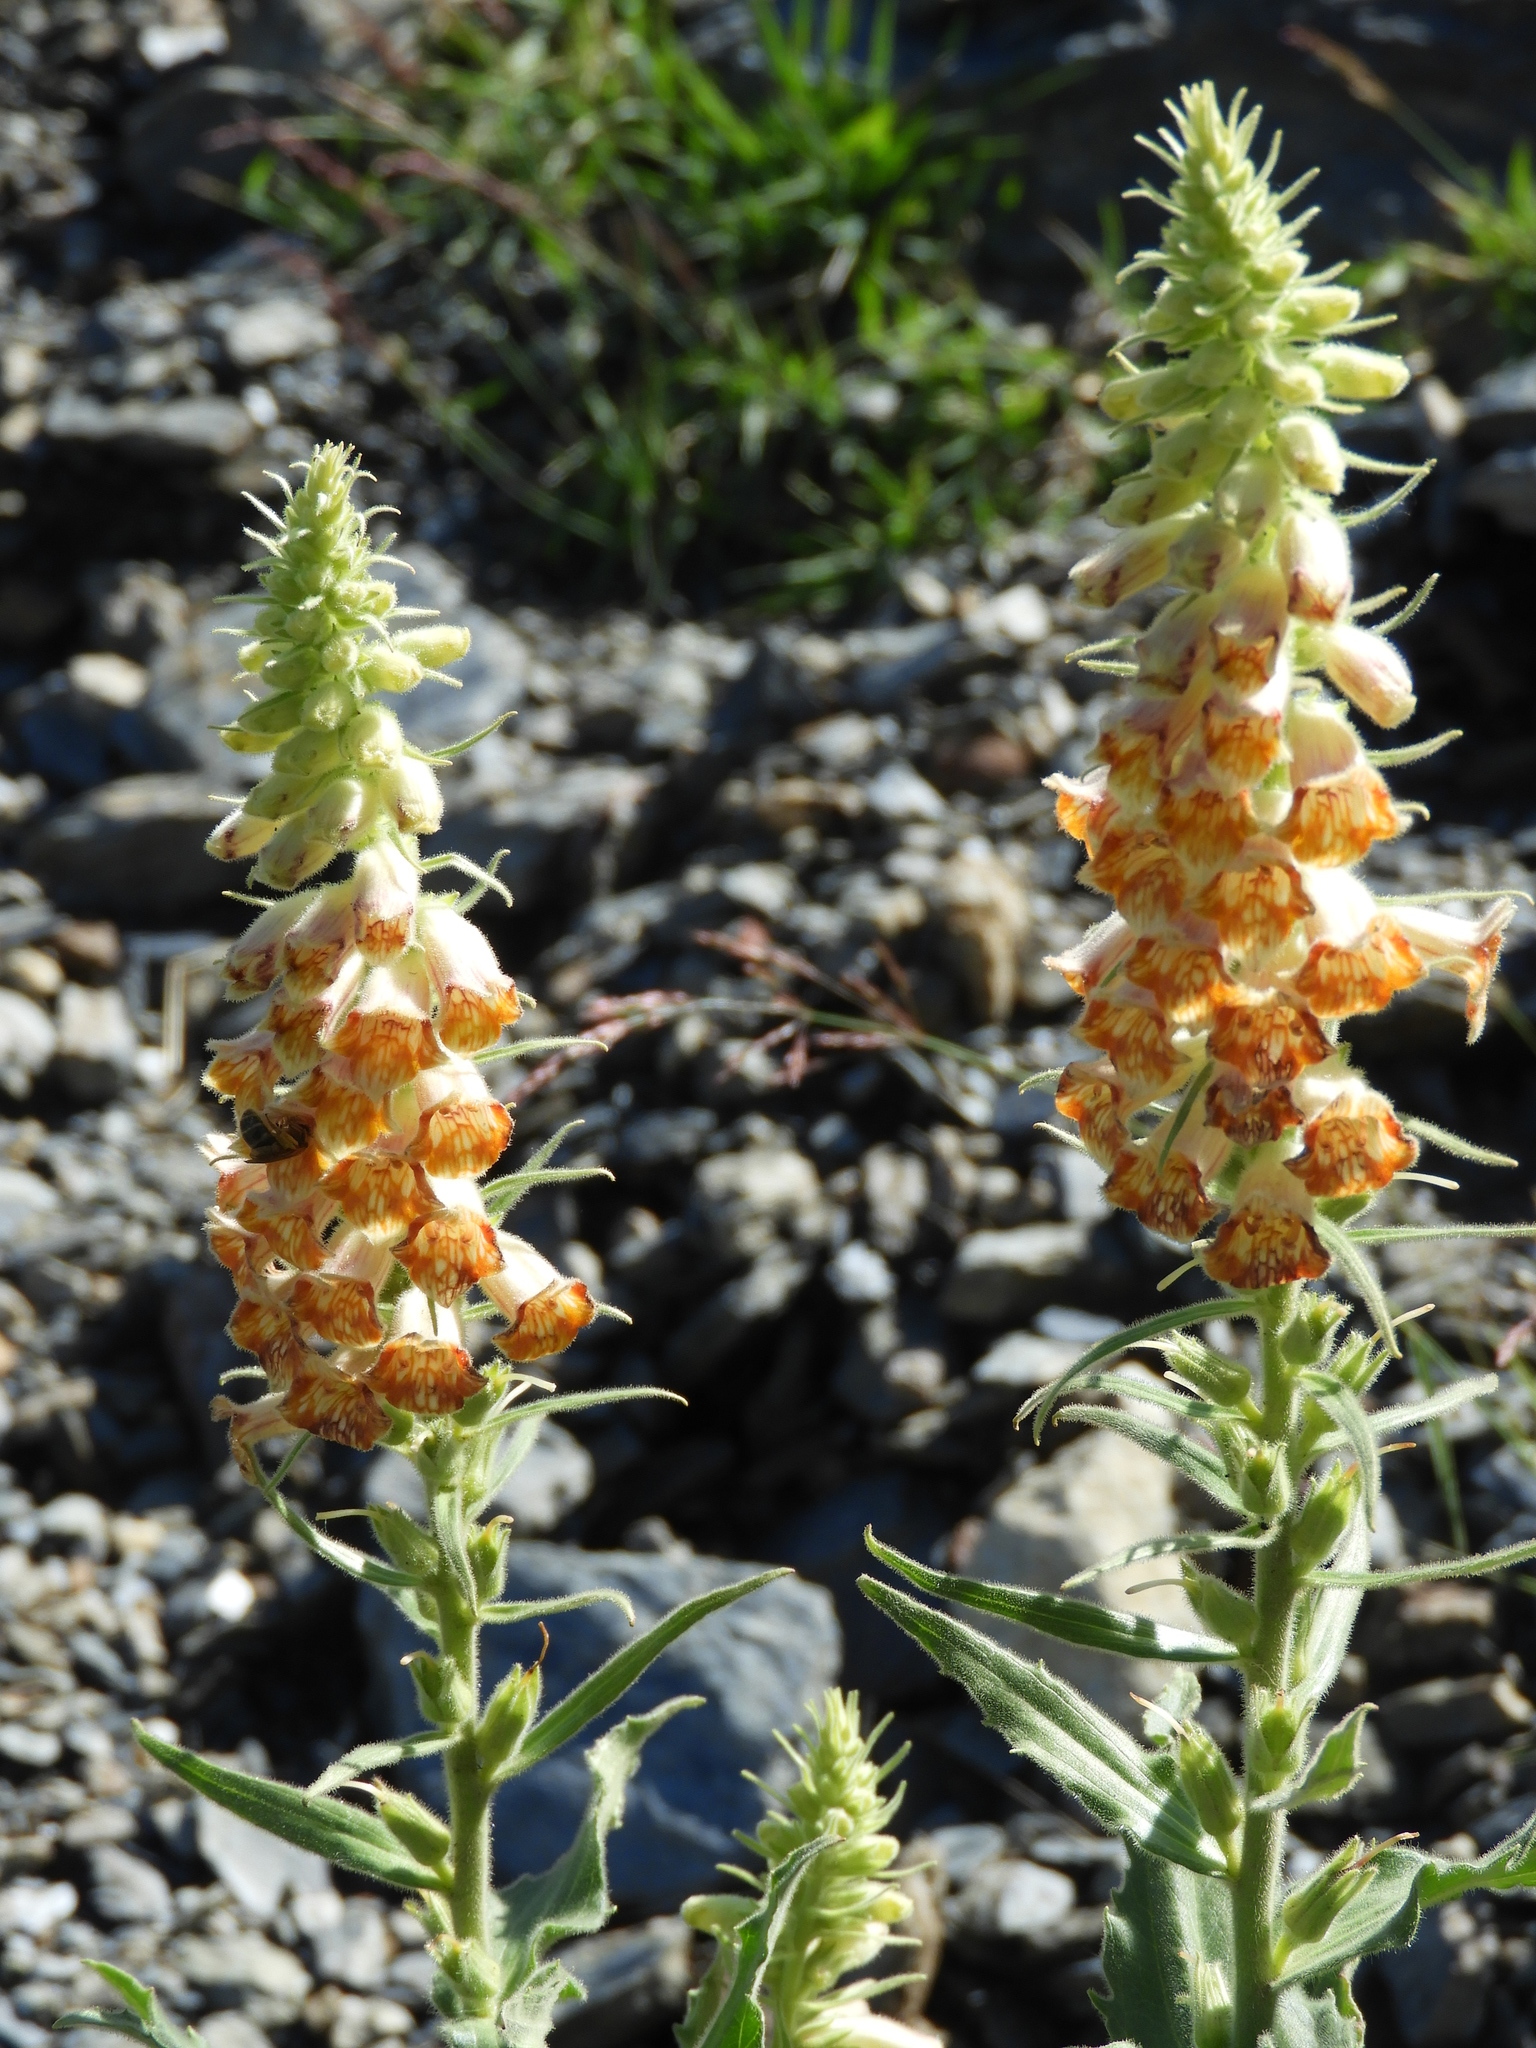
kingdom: Plantae
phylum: Tracheophyta
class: Magnoliopsida
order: Lamiales
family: Plantaginaceae
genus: Digitalis
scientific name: Digitalis viridiflora
